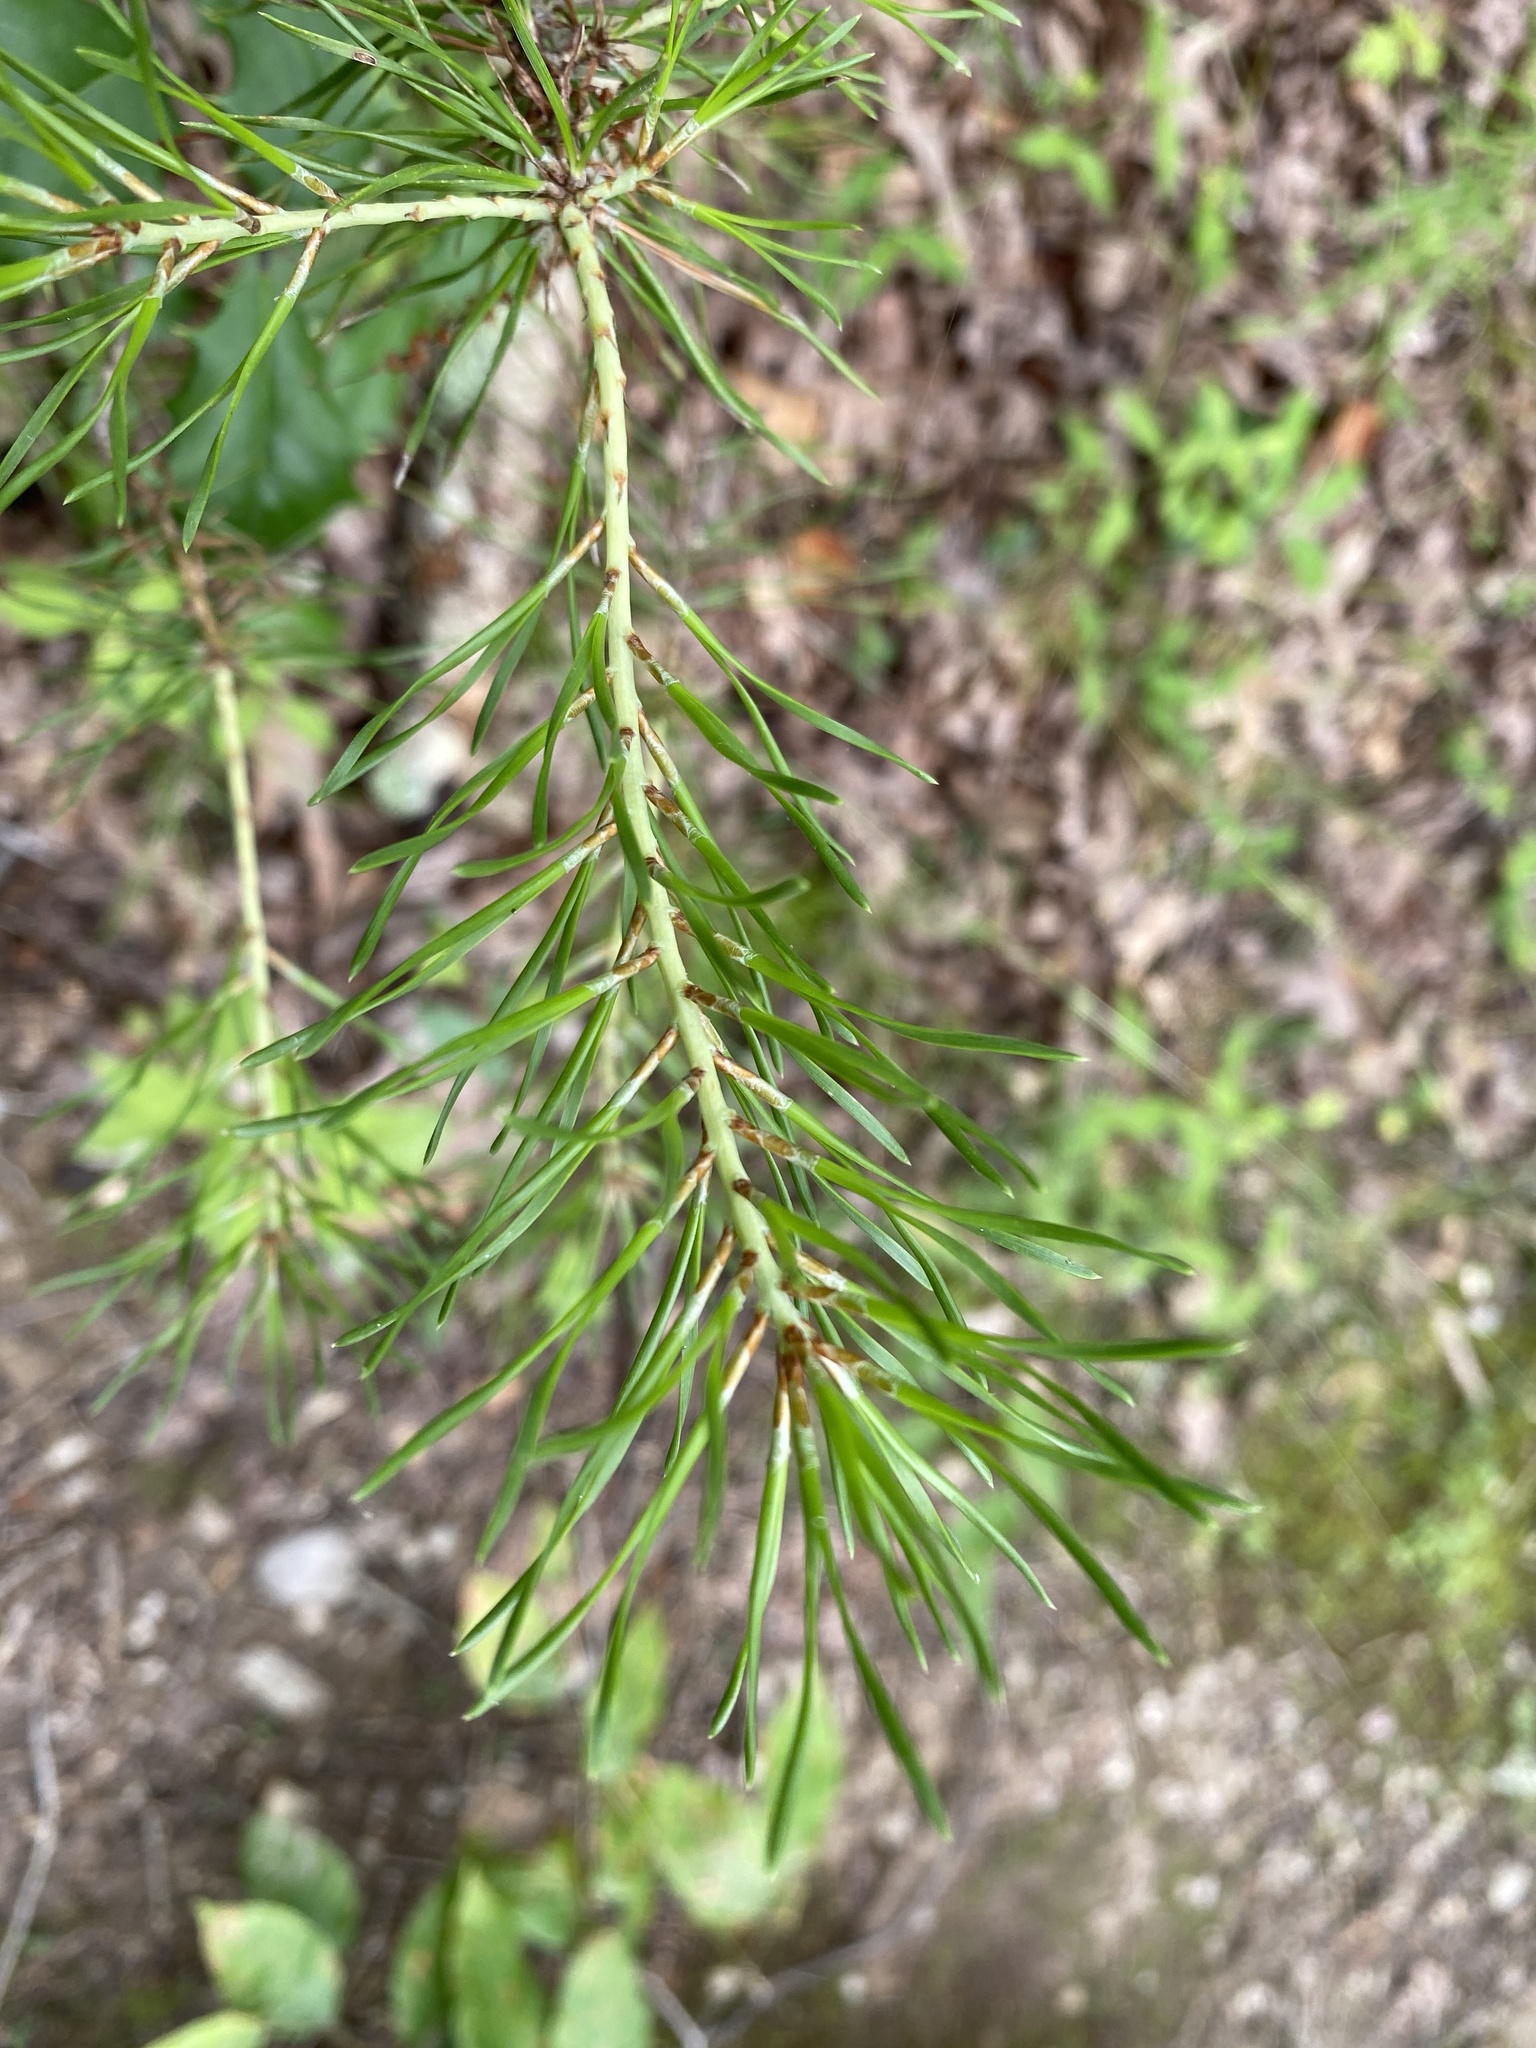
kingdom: Plantae
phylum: Tracheophyta
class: Pinopsida
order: Pinales
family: Pinaceae
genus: Pinus
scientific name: Pinus virginiana
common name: Scrub pine
